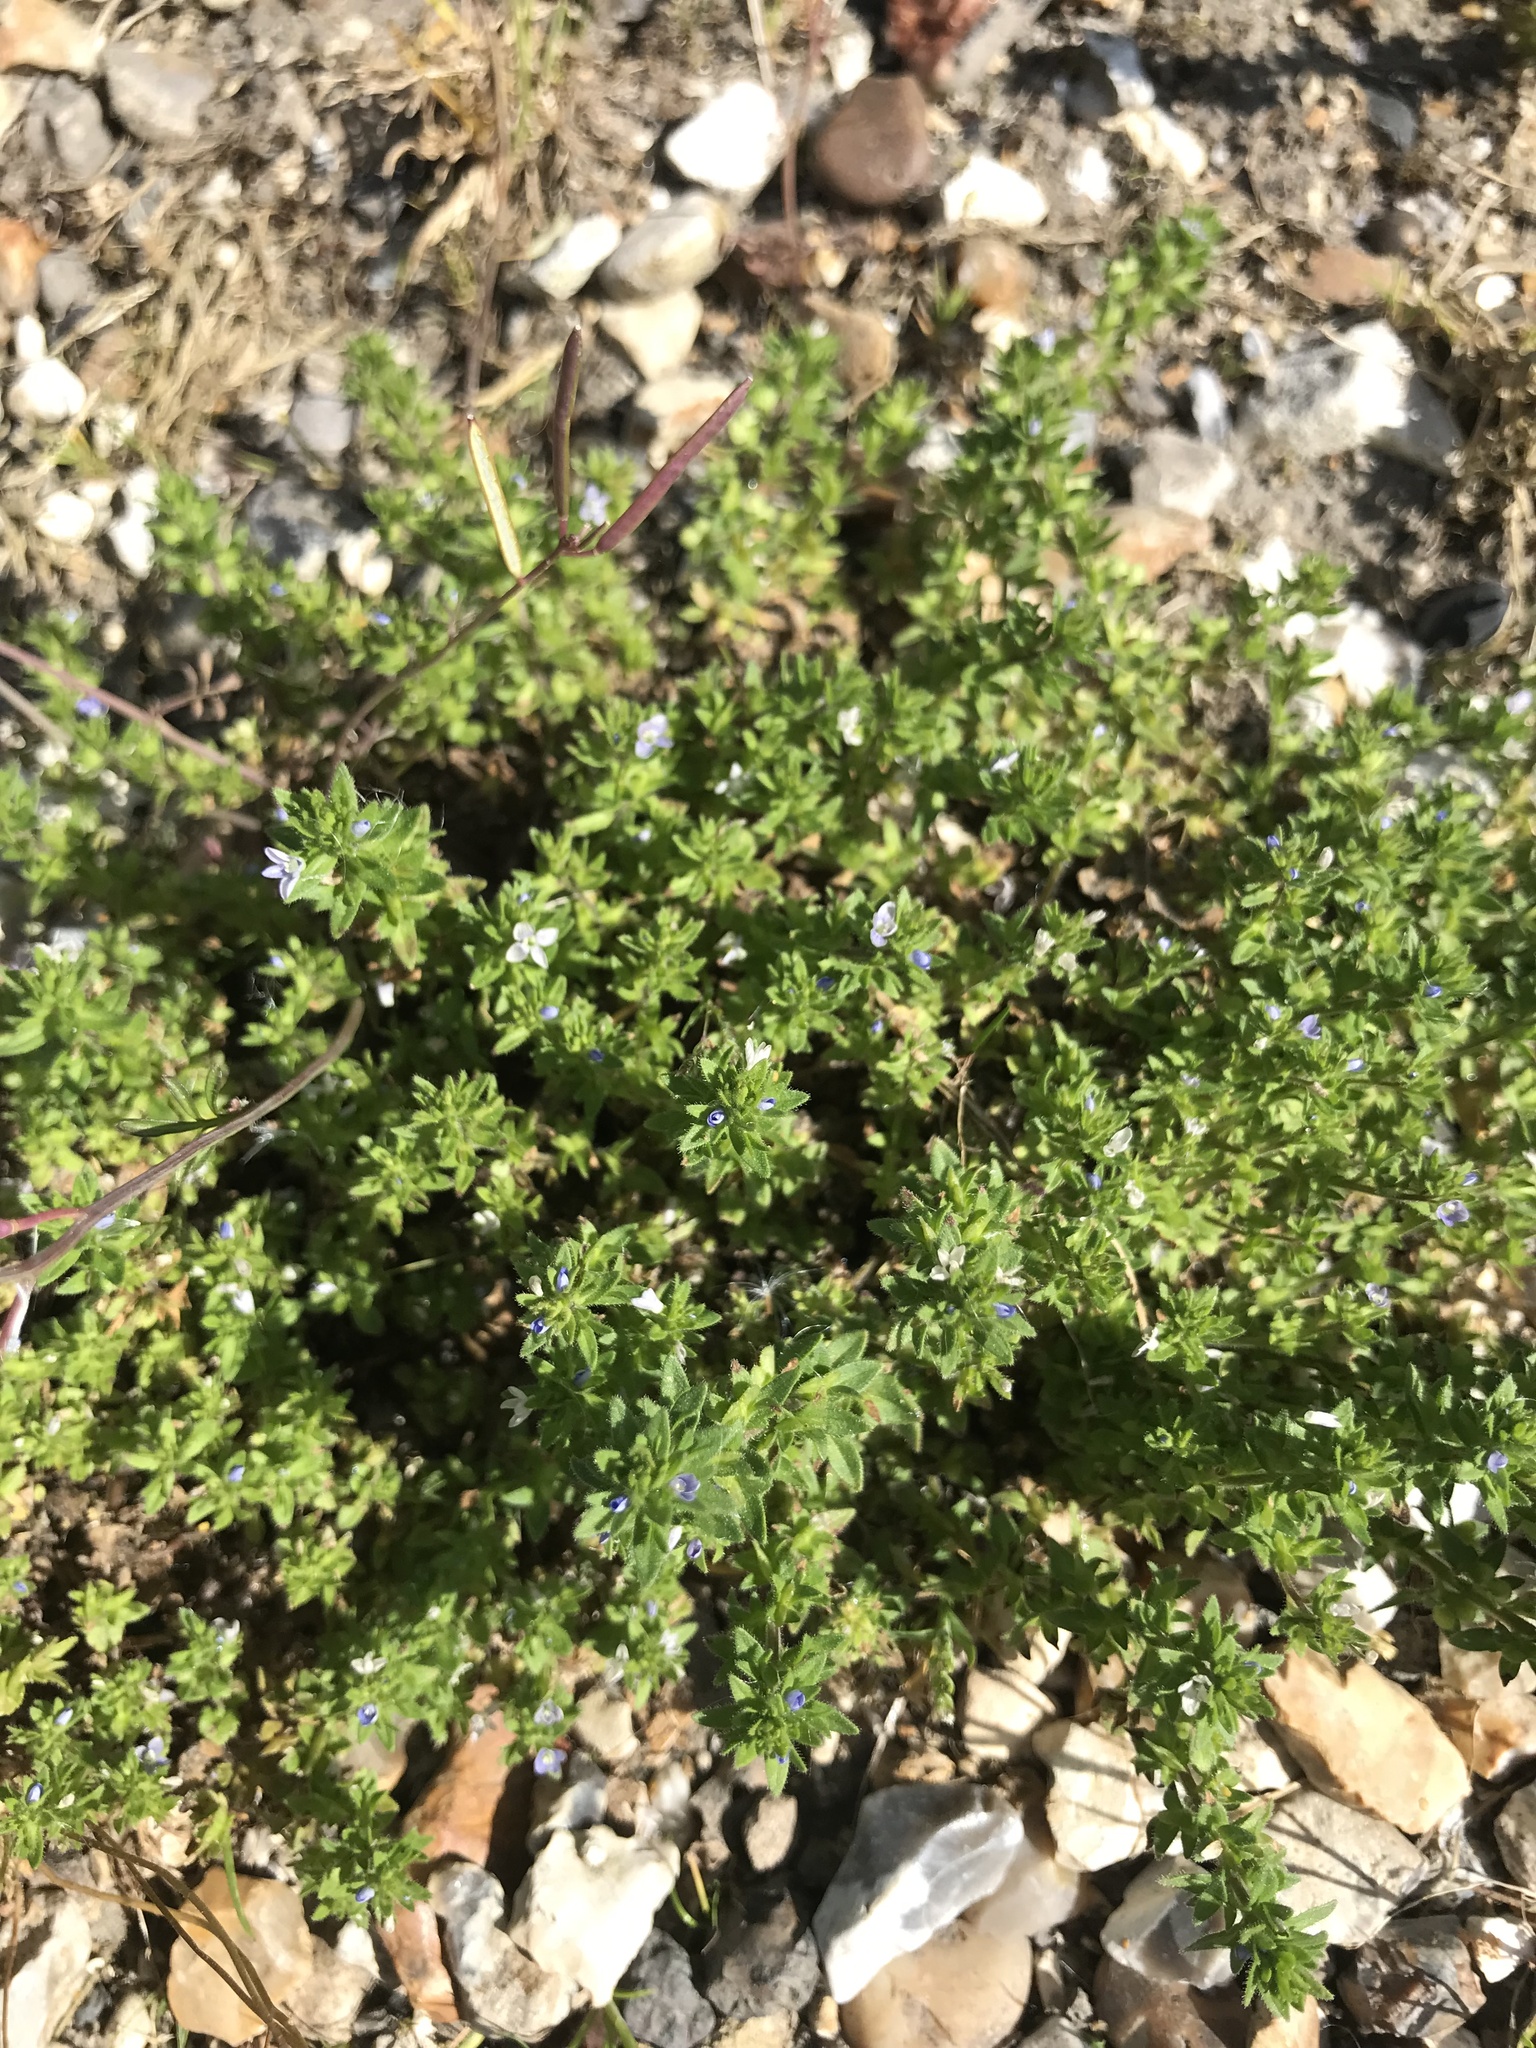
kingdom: Plantae
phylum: Tracheophyta
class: Magnoliopsida
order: Lamiales
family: Plantaginaceae
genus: Veronica
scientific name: Veronica arvensis
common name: Corn speedwell
